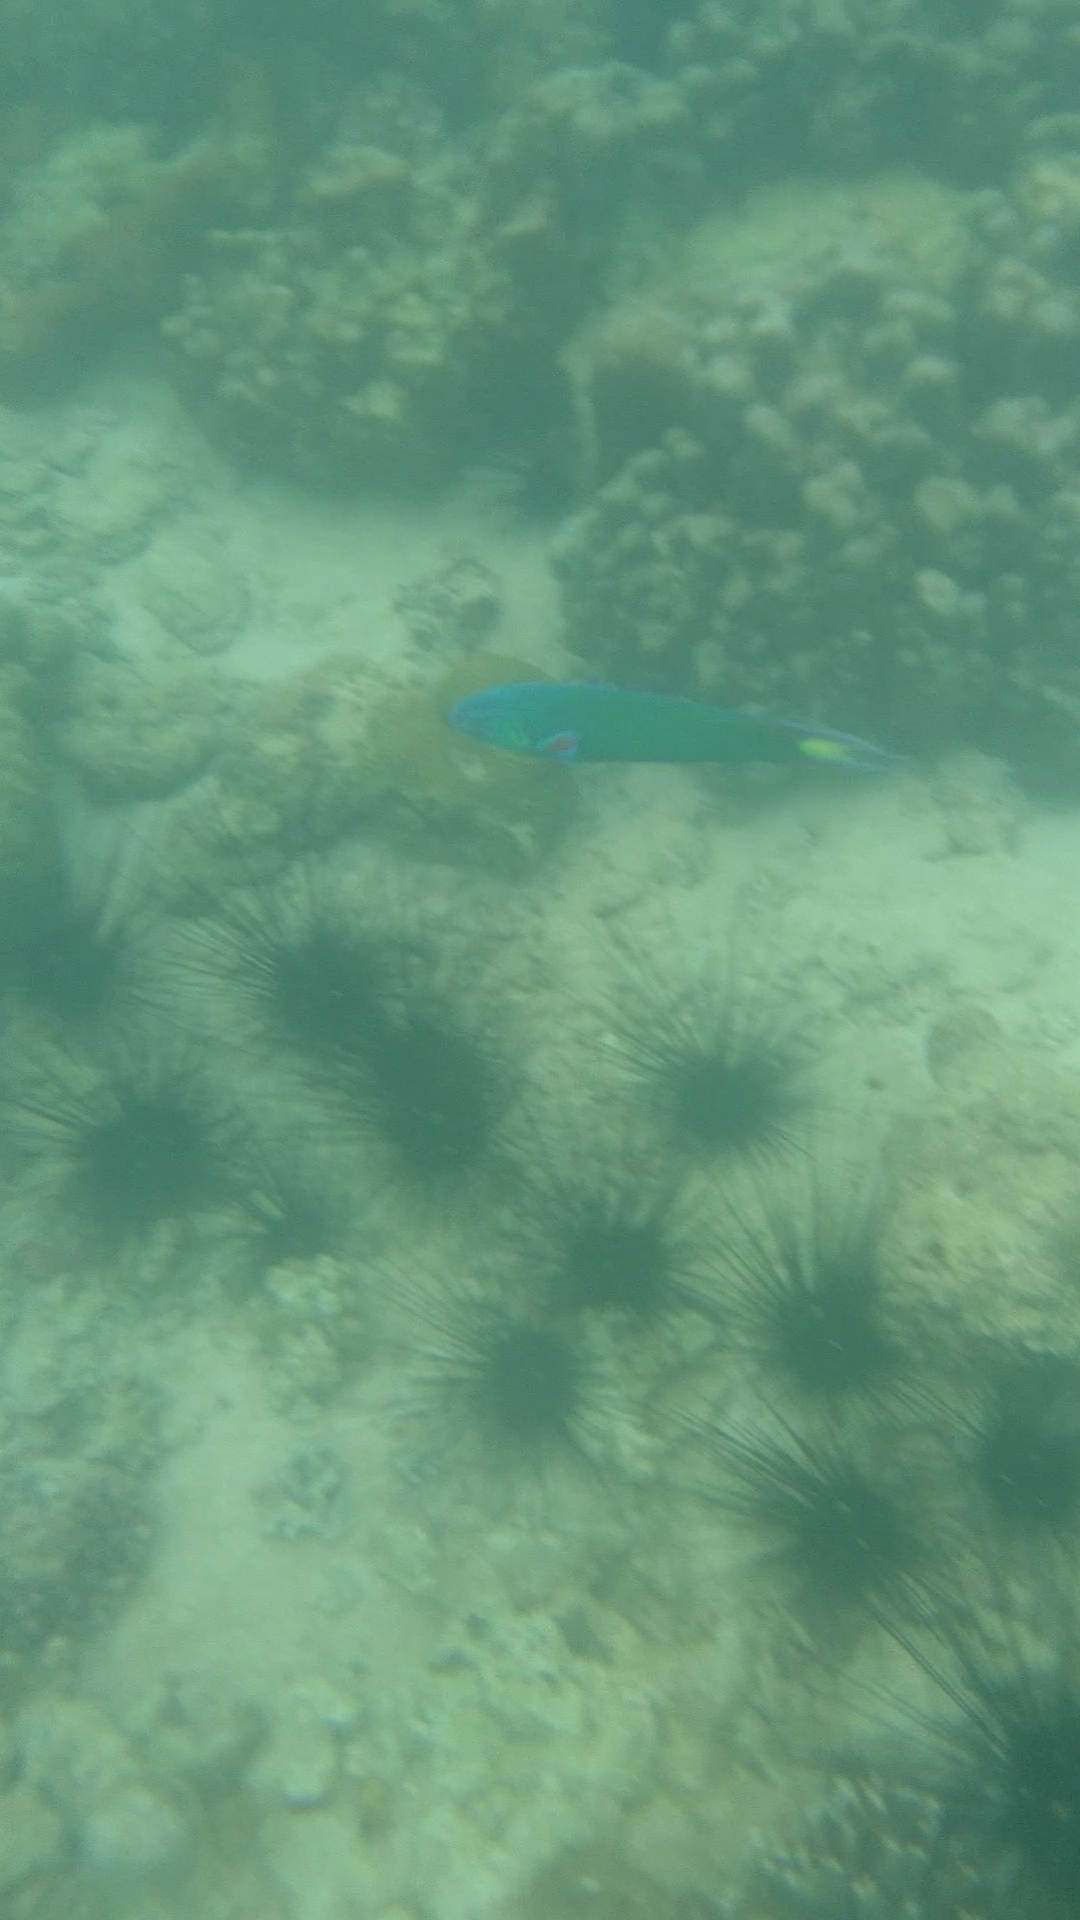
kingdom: Animalia
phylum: Chordata
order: Perciformes
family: Labridae
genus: Thalassoma
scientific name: Thalassoma lunare
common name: Blue wrasse
